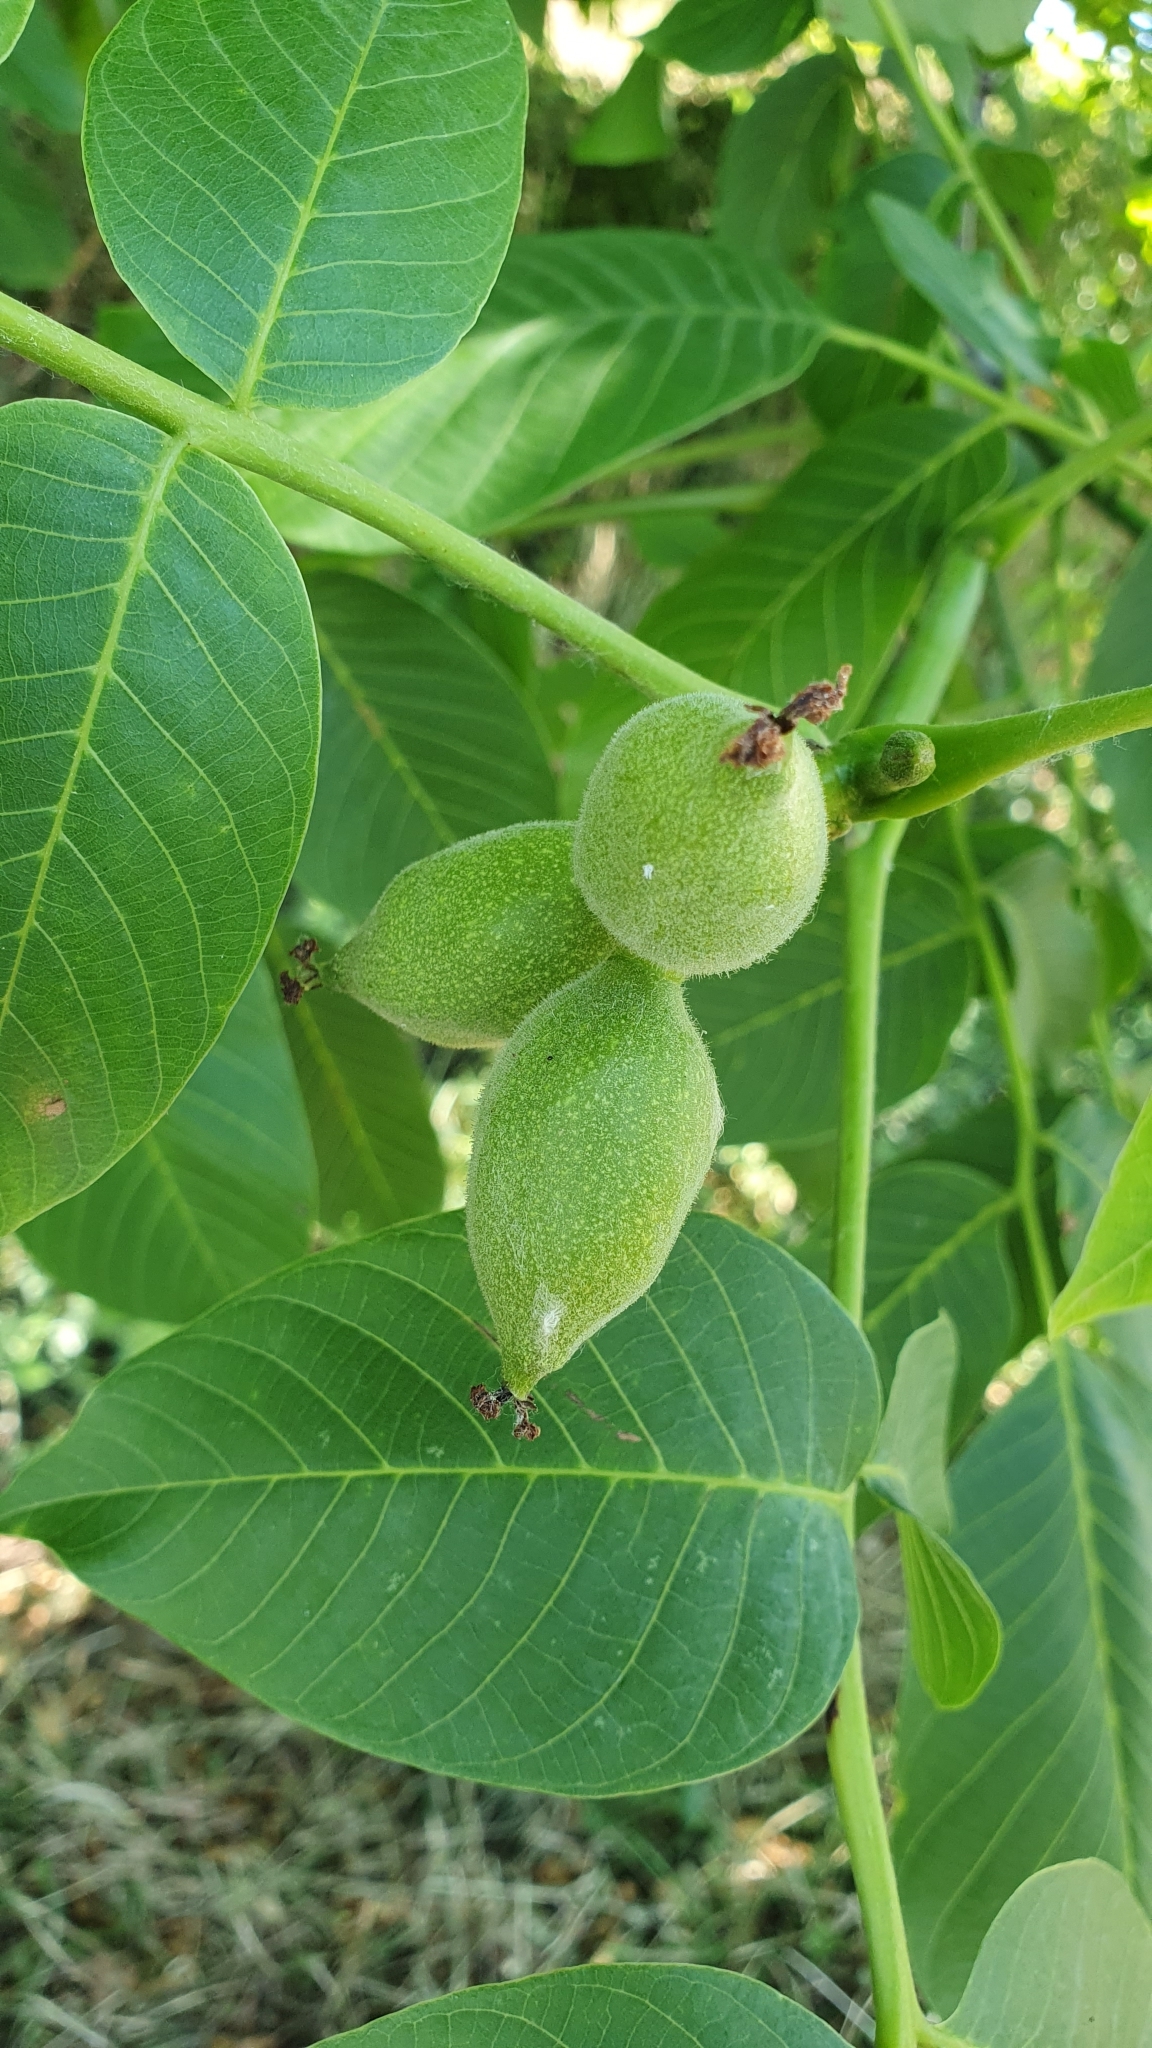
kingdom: Plantae
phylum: Tracheophyta
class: Magnoliopsida
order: Fagales
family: Juglandaceae
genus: Juglans
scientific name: Juglans regia
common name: Walnut
